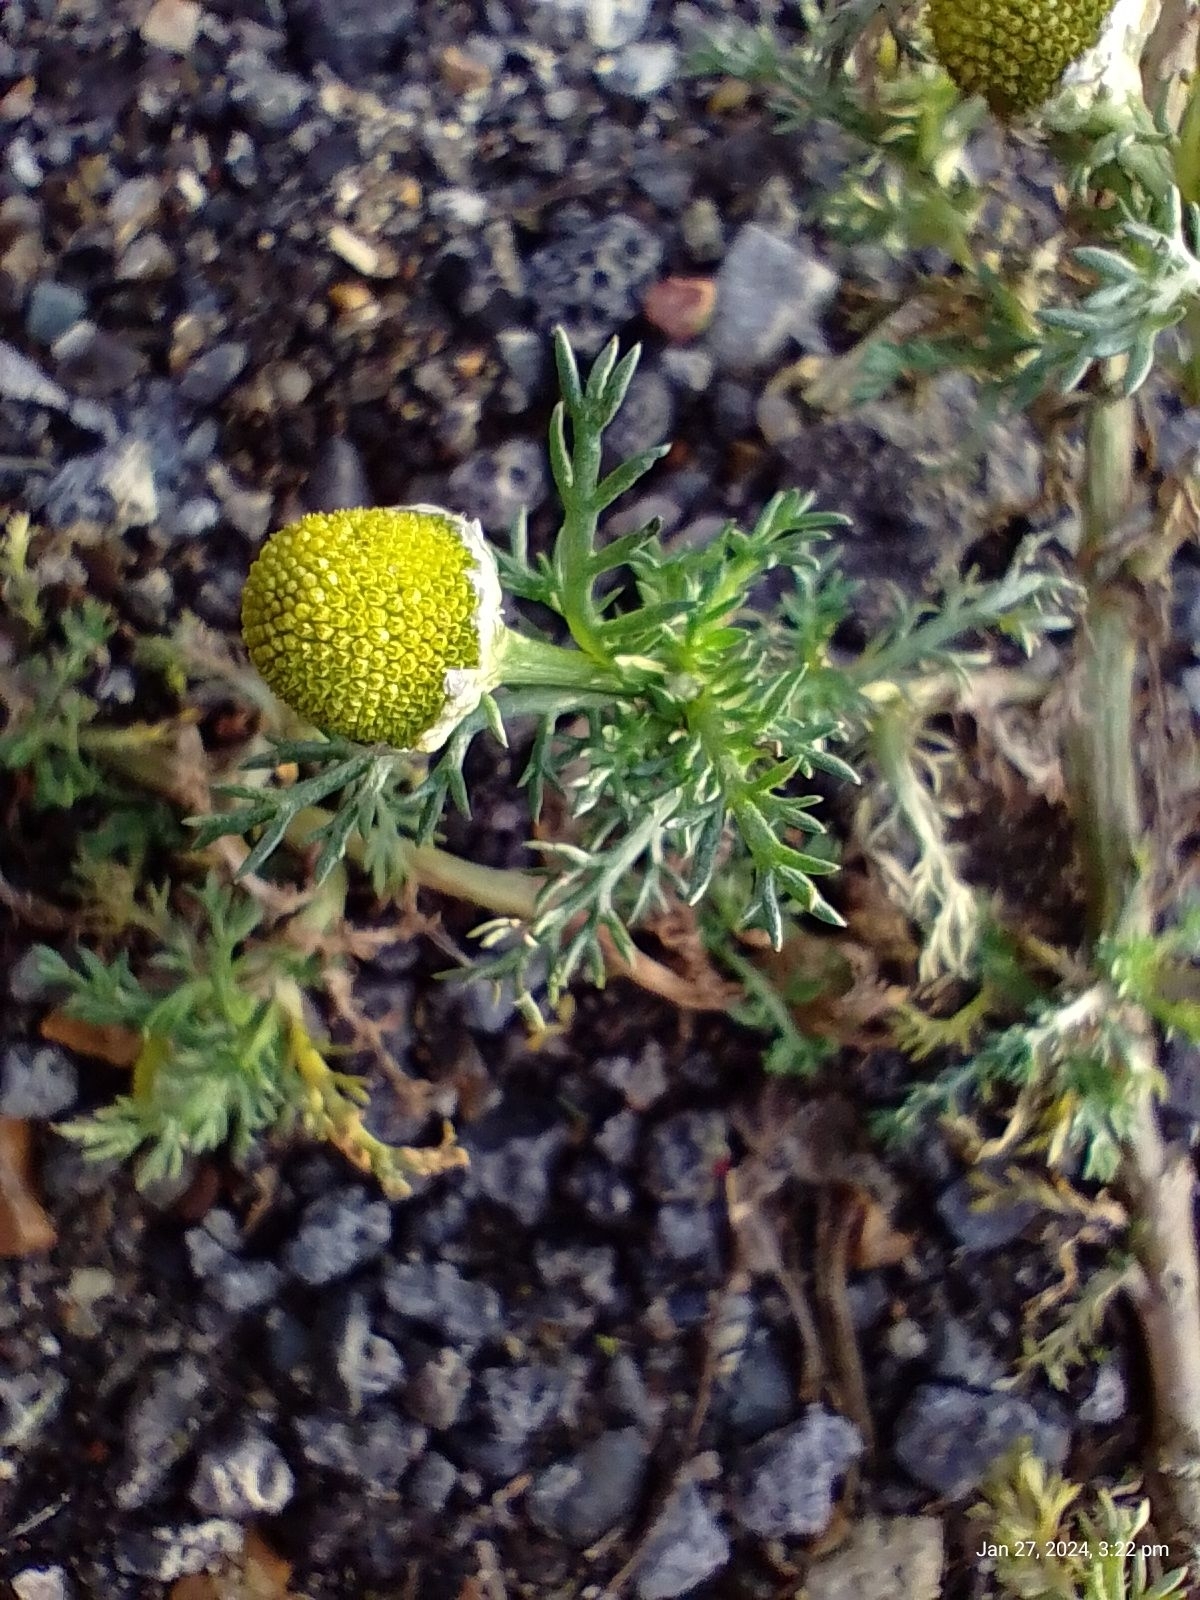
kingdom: Plantae
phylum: Tracheophyta
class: Magnoliopsida
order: Asterales
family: Asteraceae
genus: Matricaria
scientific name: Matricaria discoidea
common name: Disc mayweed
